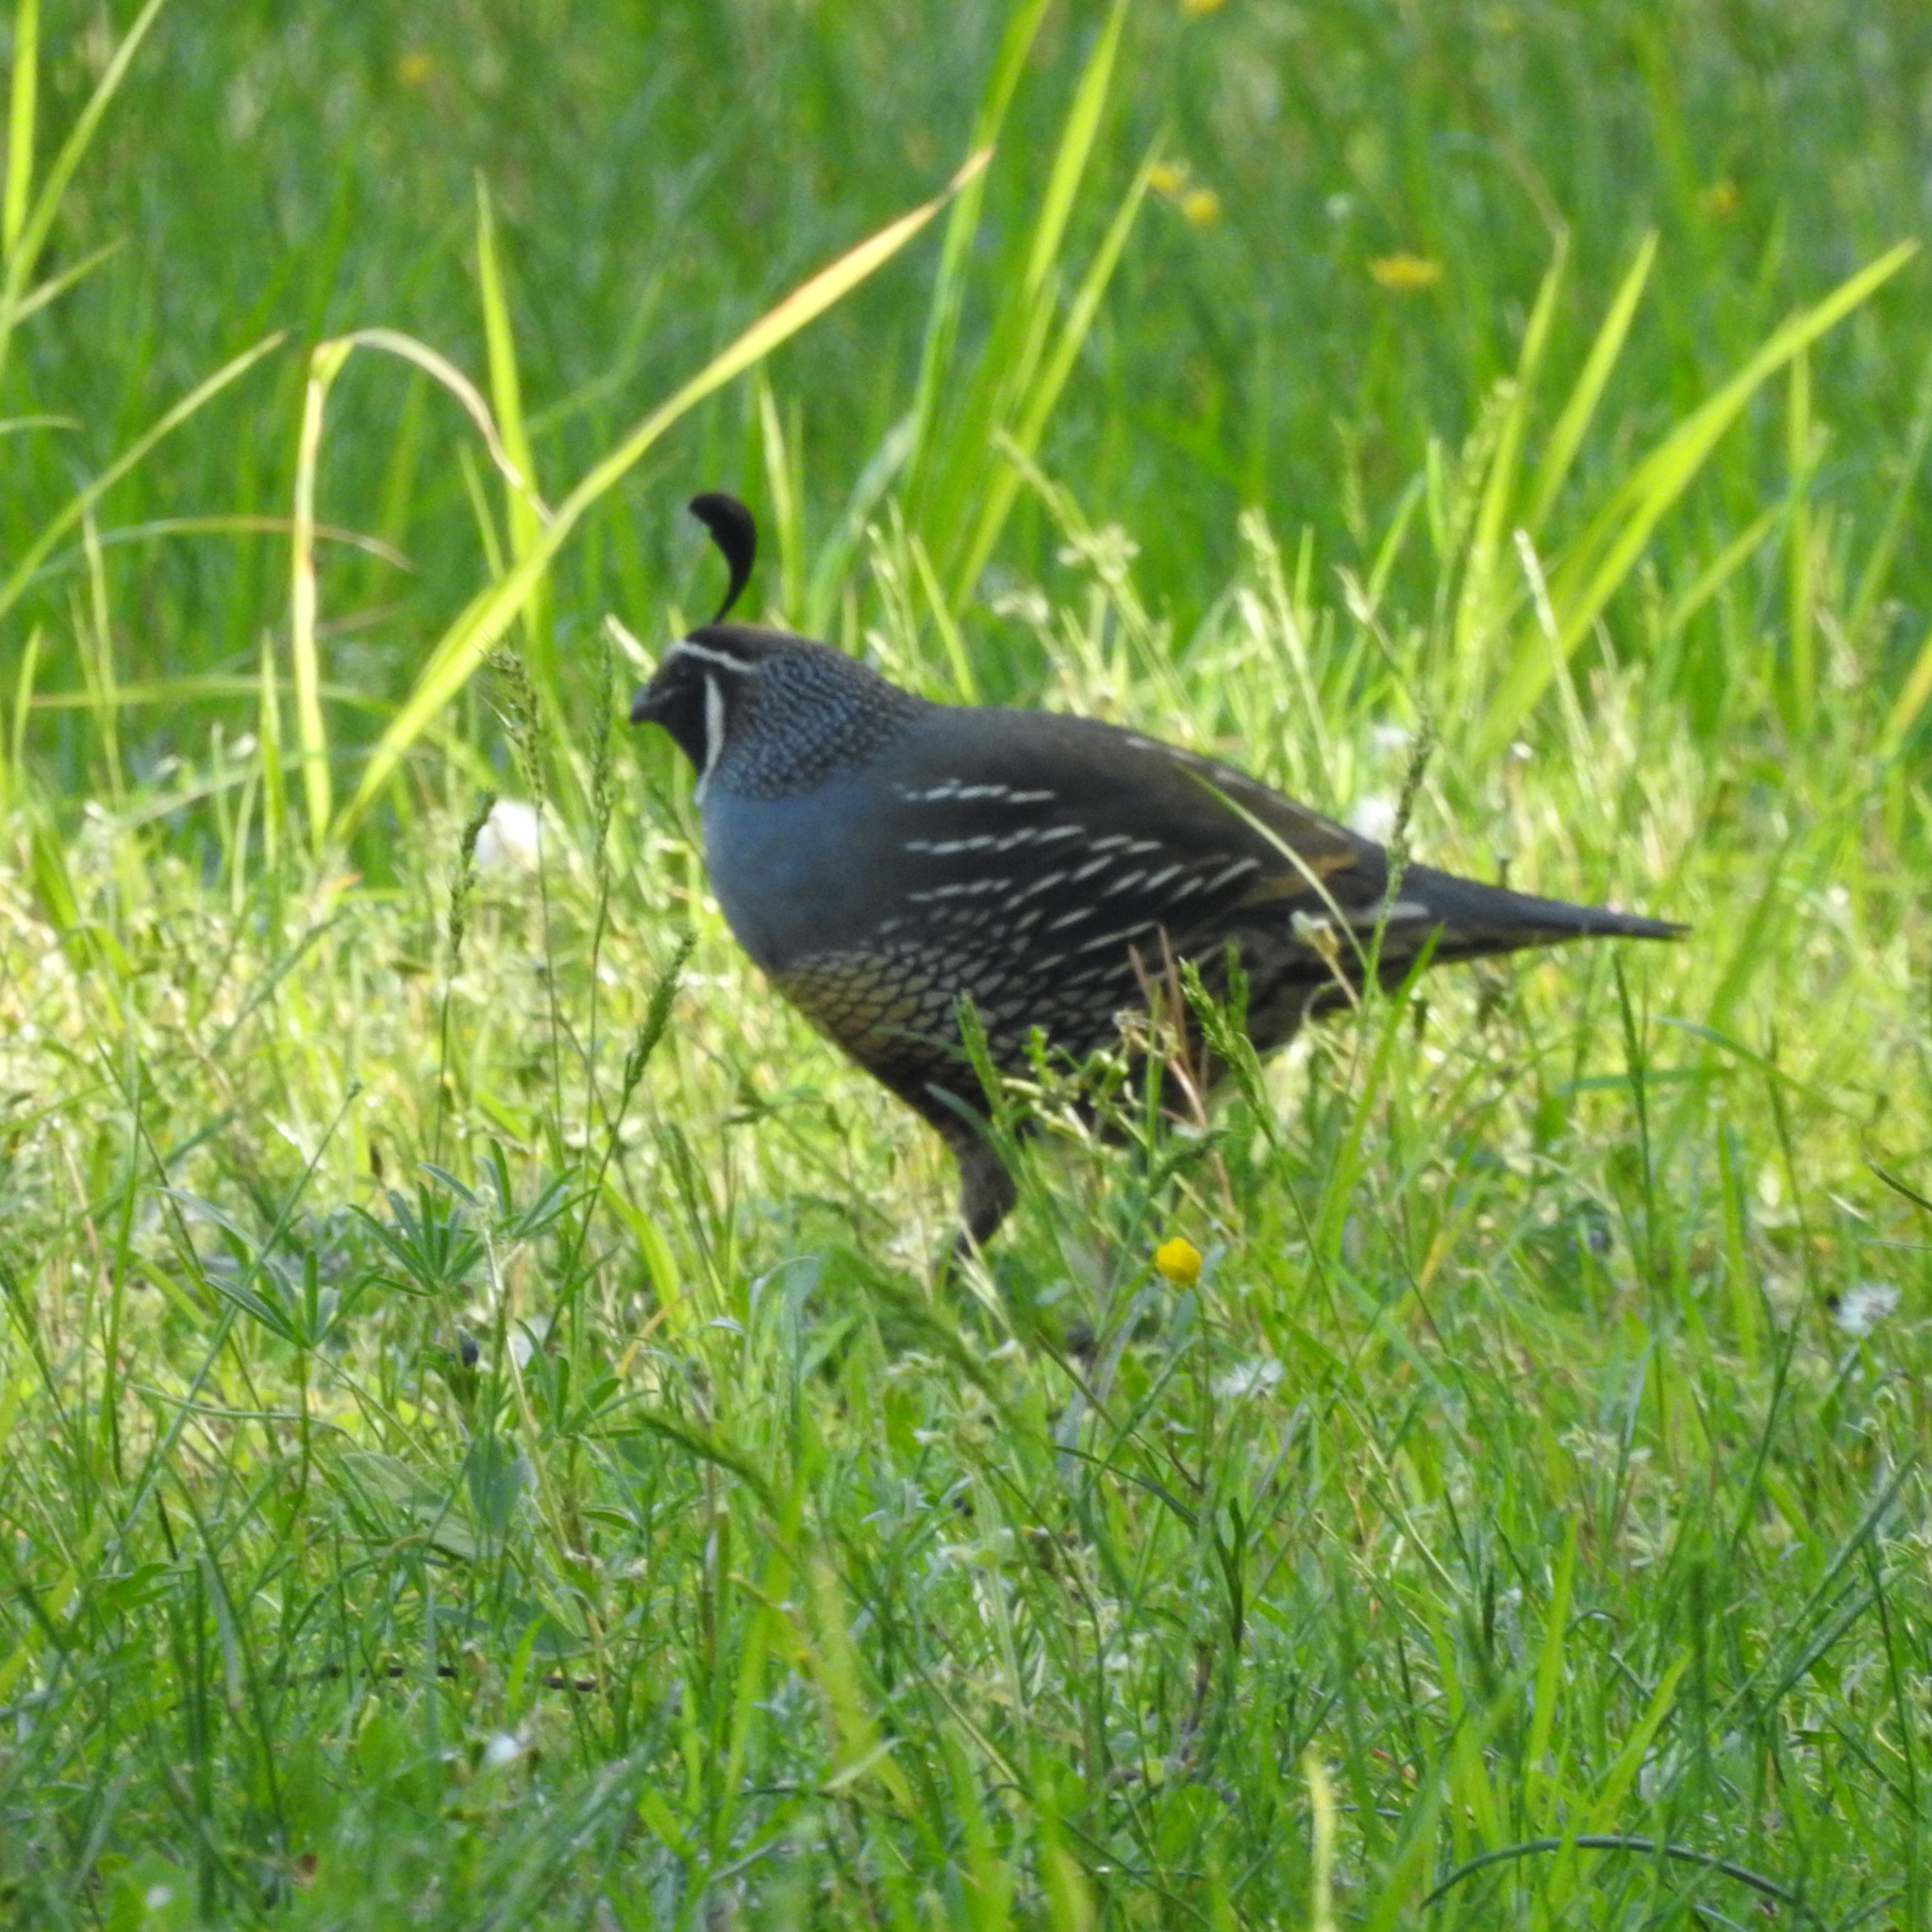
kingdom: Animalia
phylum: Chordata
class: Aves
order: Galliformes
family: Odontophoridae
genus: Callipepla
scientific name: Callipepla californica
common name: California quail
